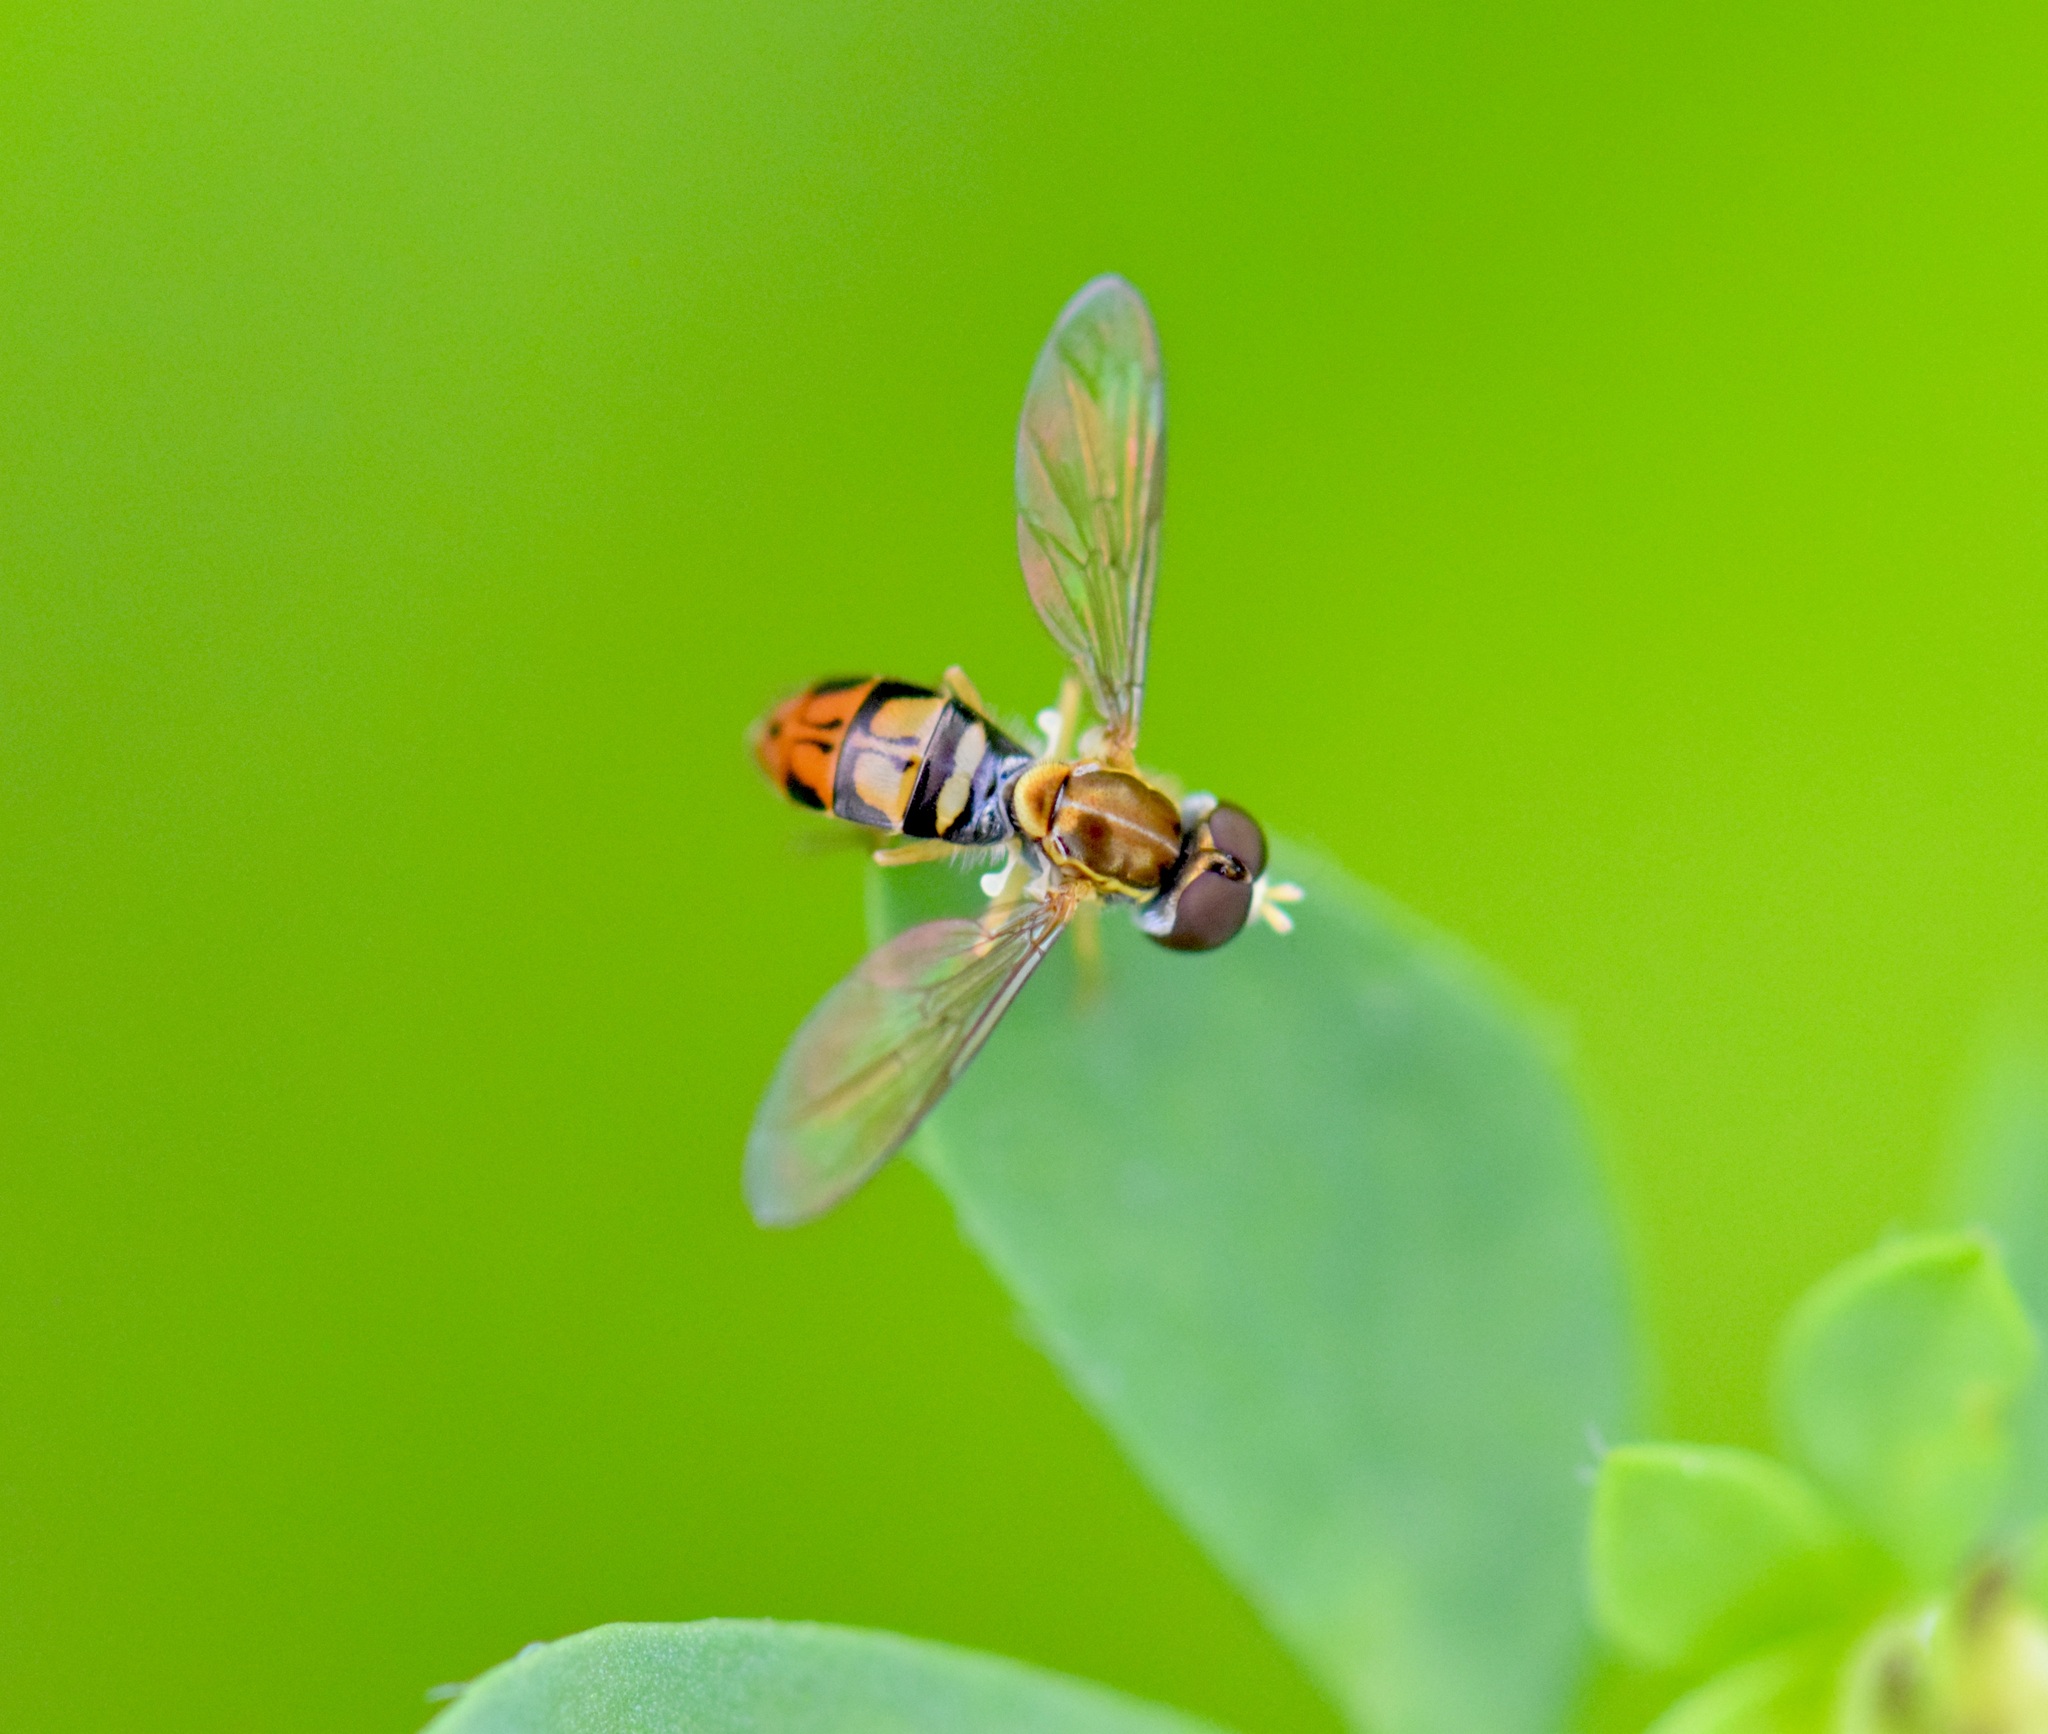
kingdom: Animalia
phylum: Arthropoda
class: Insecta
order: Diptera
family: Syrphidae
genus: Toxomerus
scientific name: Toxomerus marginatus
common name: Syrphid fly
